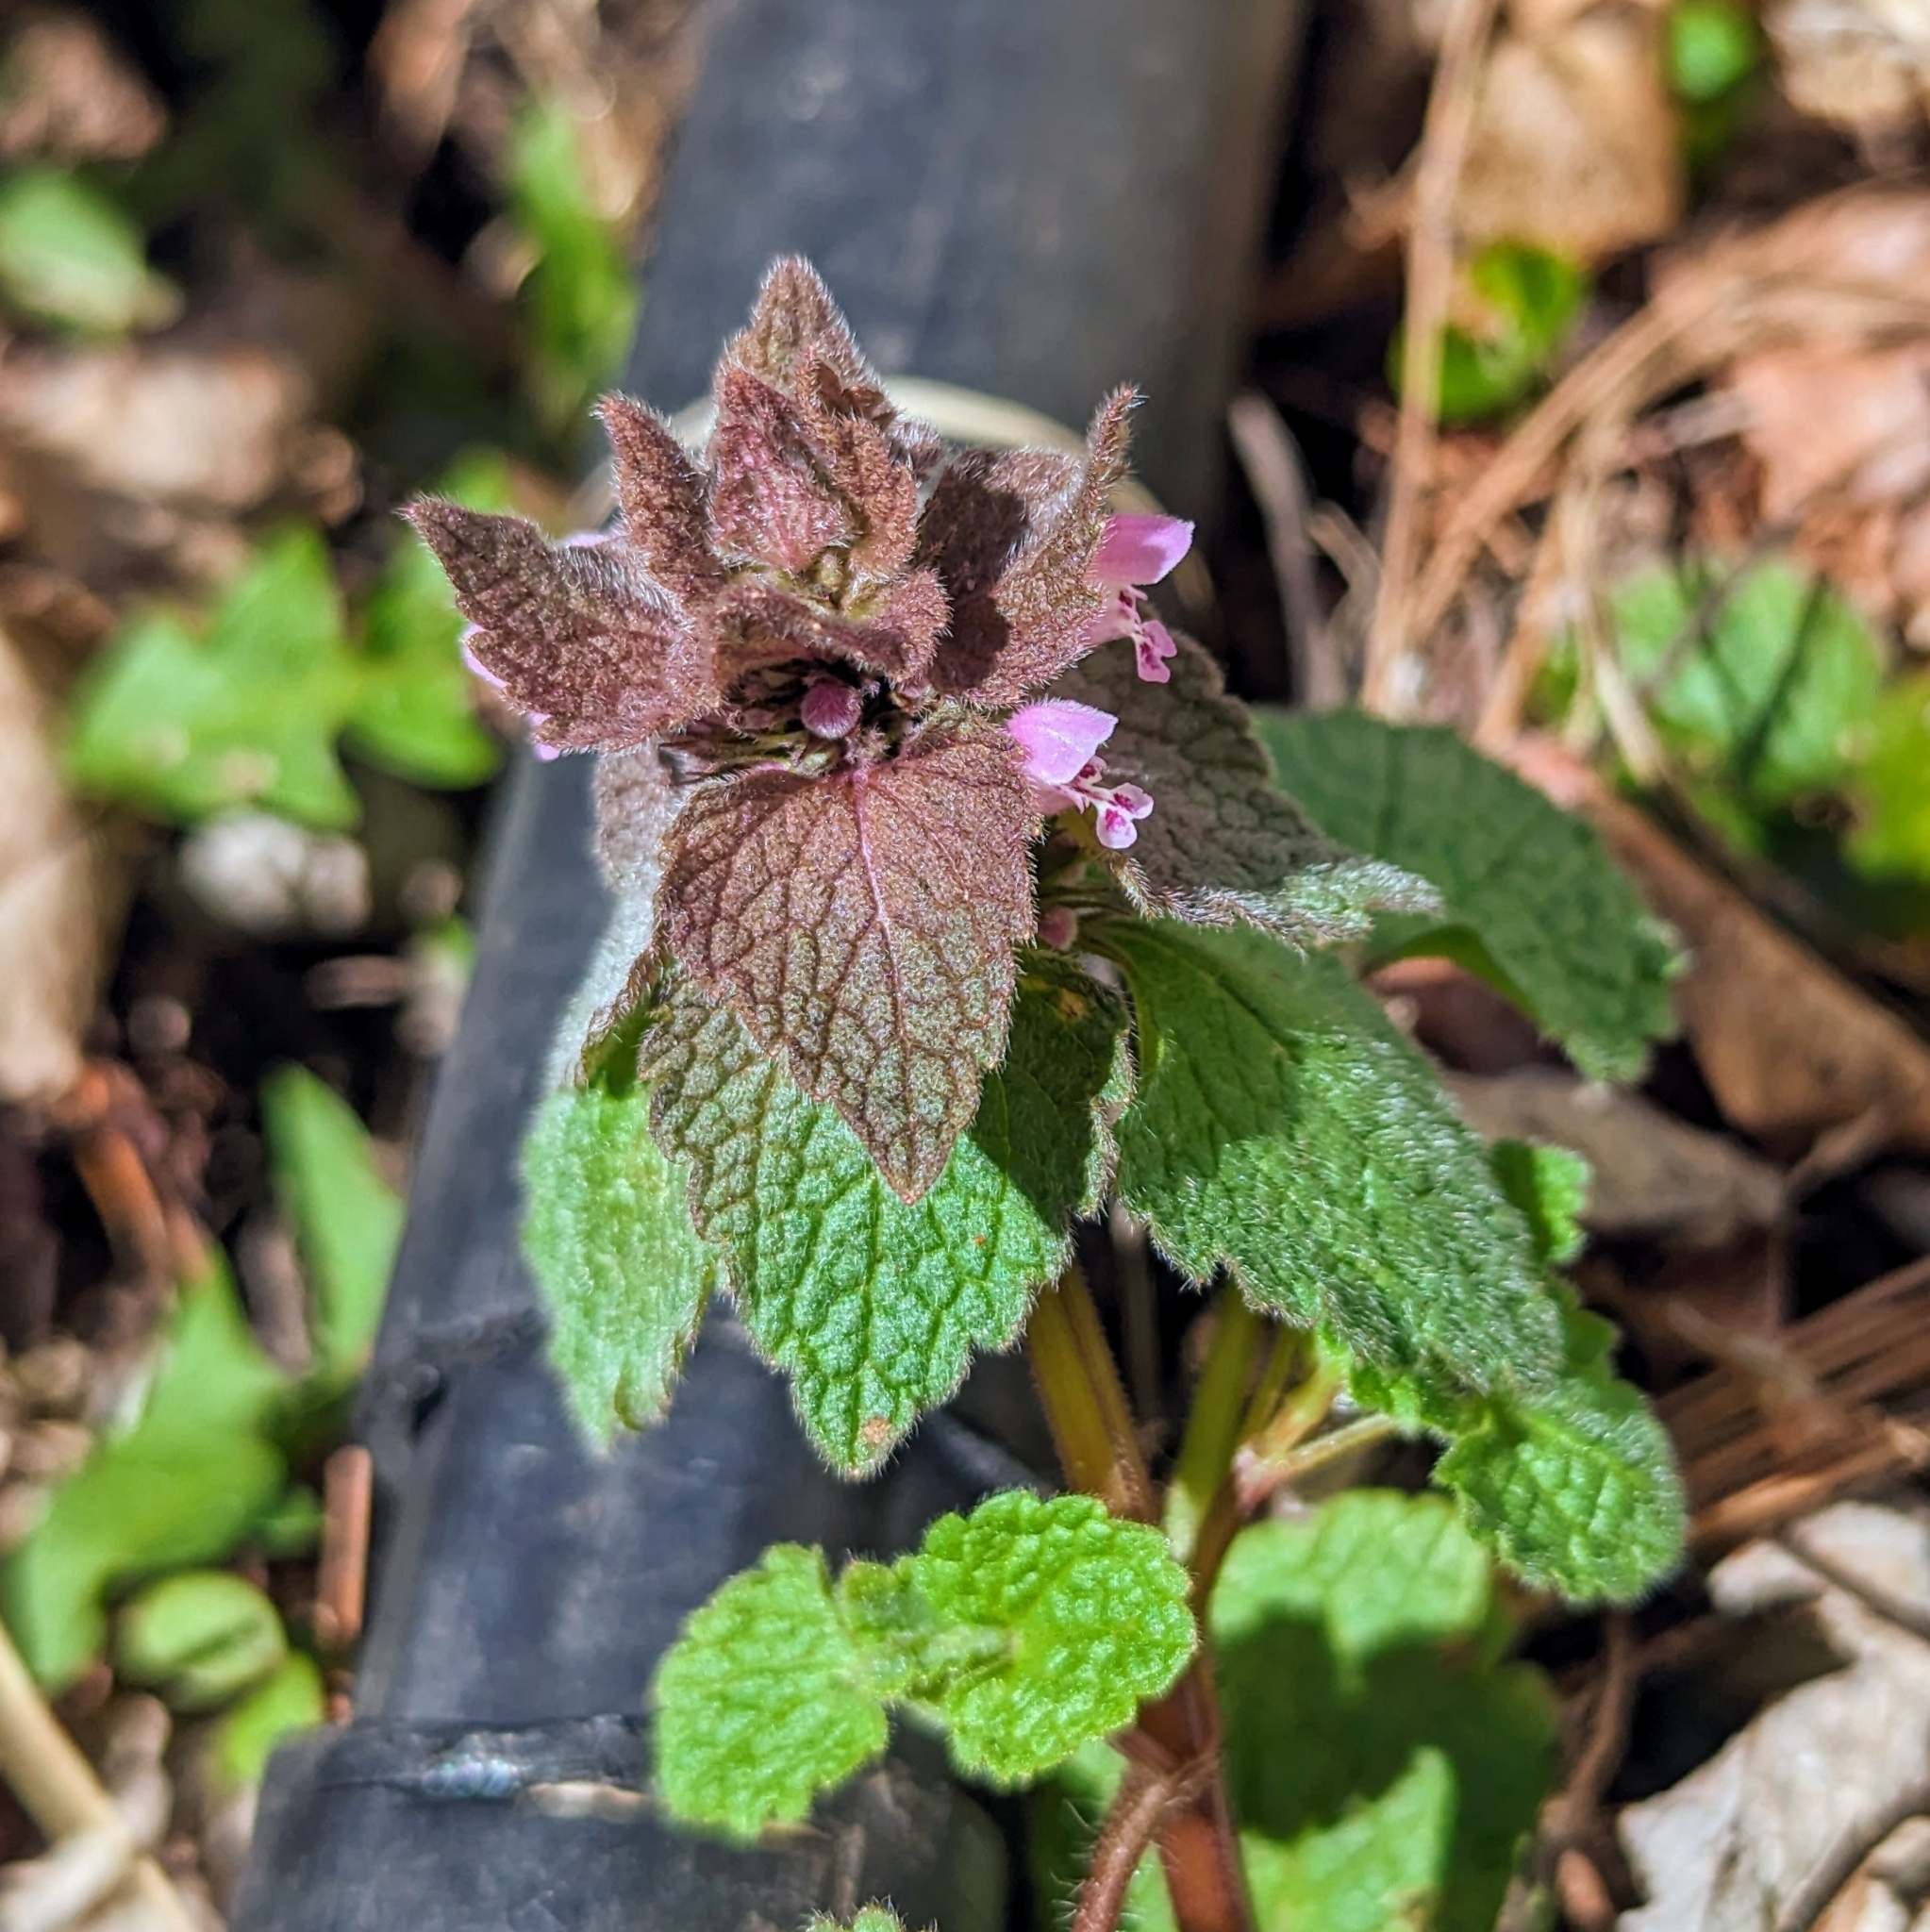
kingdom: Plantae
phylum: Tracheophyta
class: Magnoliopsida
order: Lamiales
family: Lamiaceae
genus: Lamium
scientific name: Lamium purpureum
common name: Red dead-nettle
